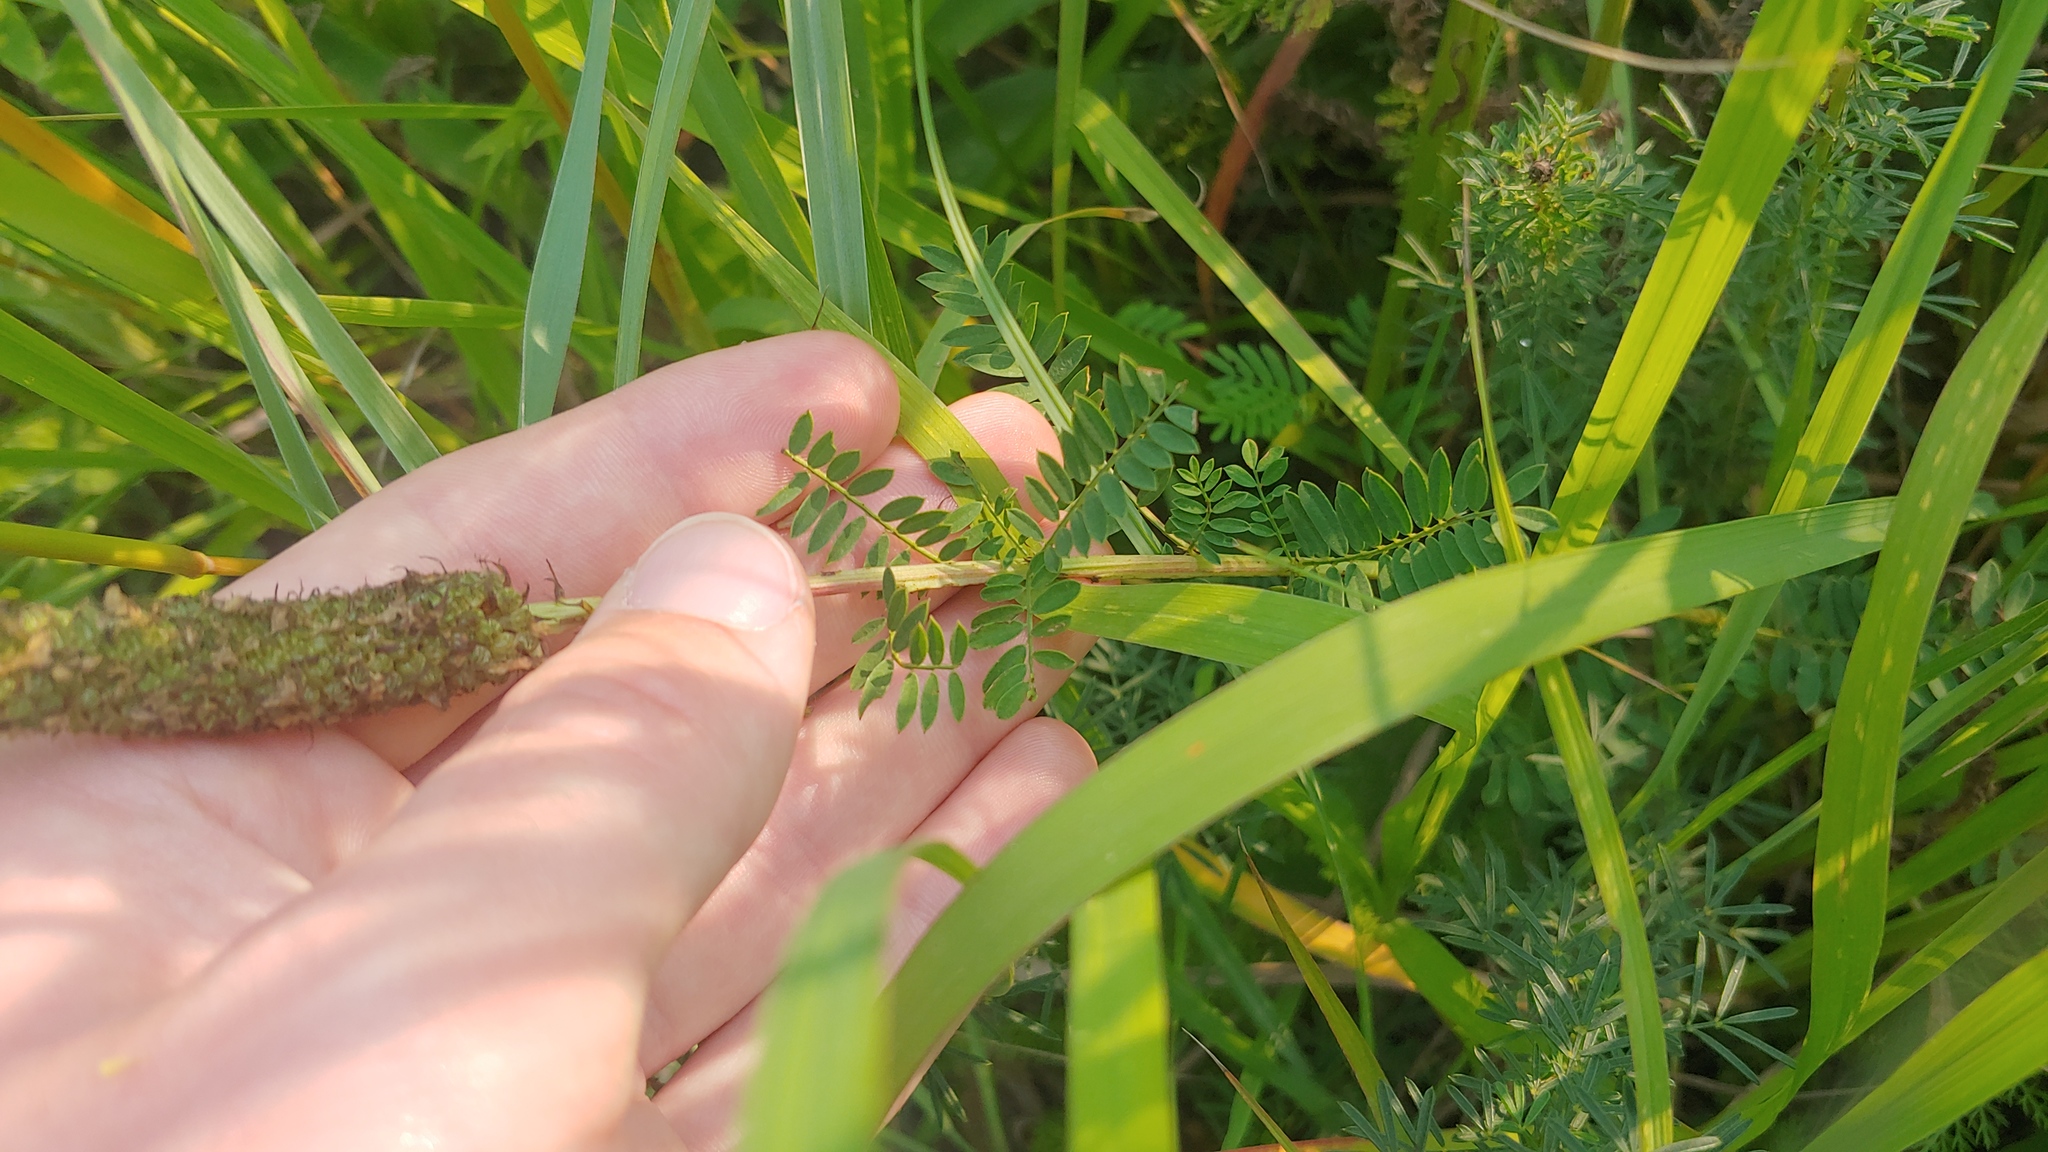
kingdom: Plantae
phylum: Tracheophyta
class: Magnoliopsida
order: Fabales
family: Fabaceae
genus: Dalea
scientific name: Dalea foliosa
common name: Leafy prairie-clover
